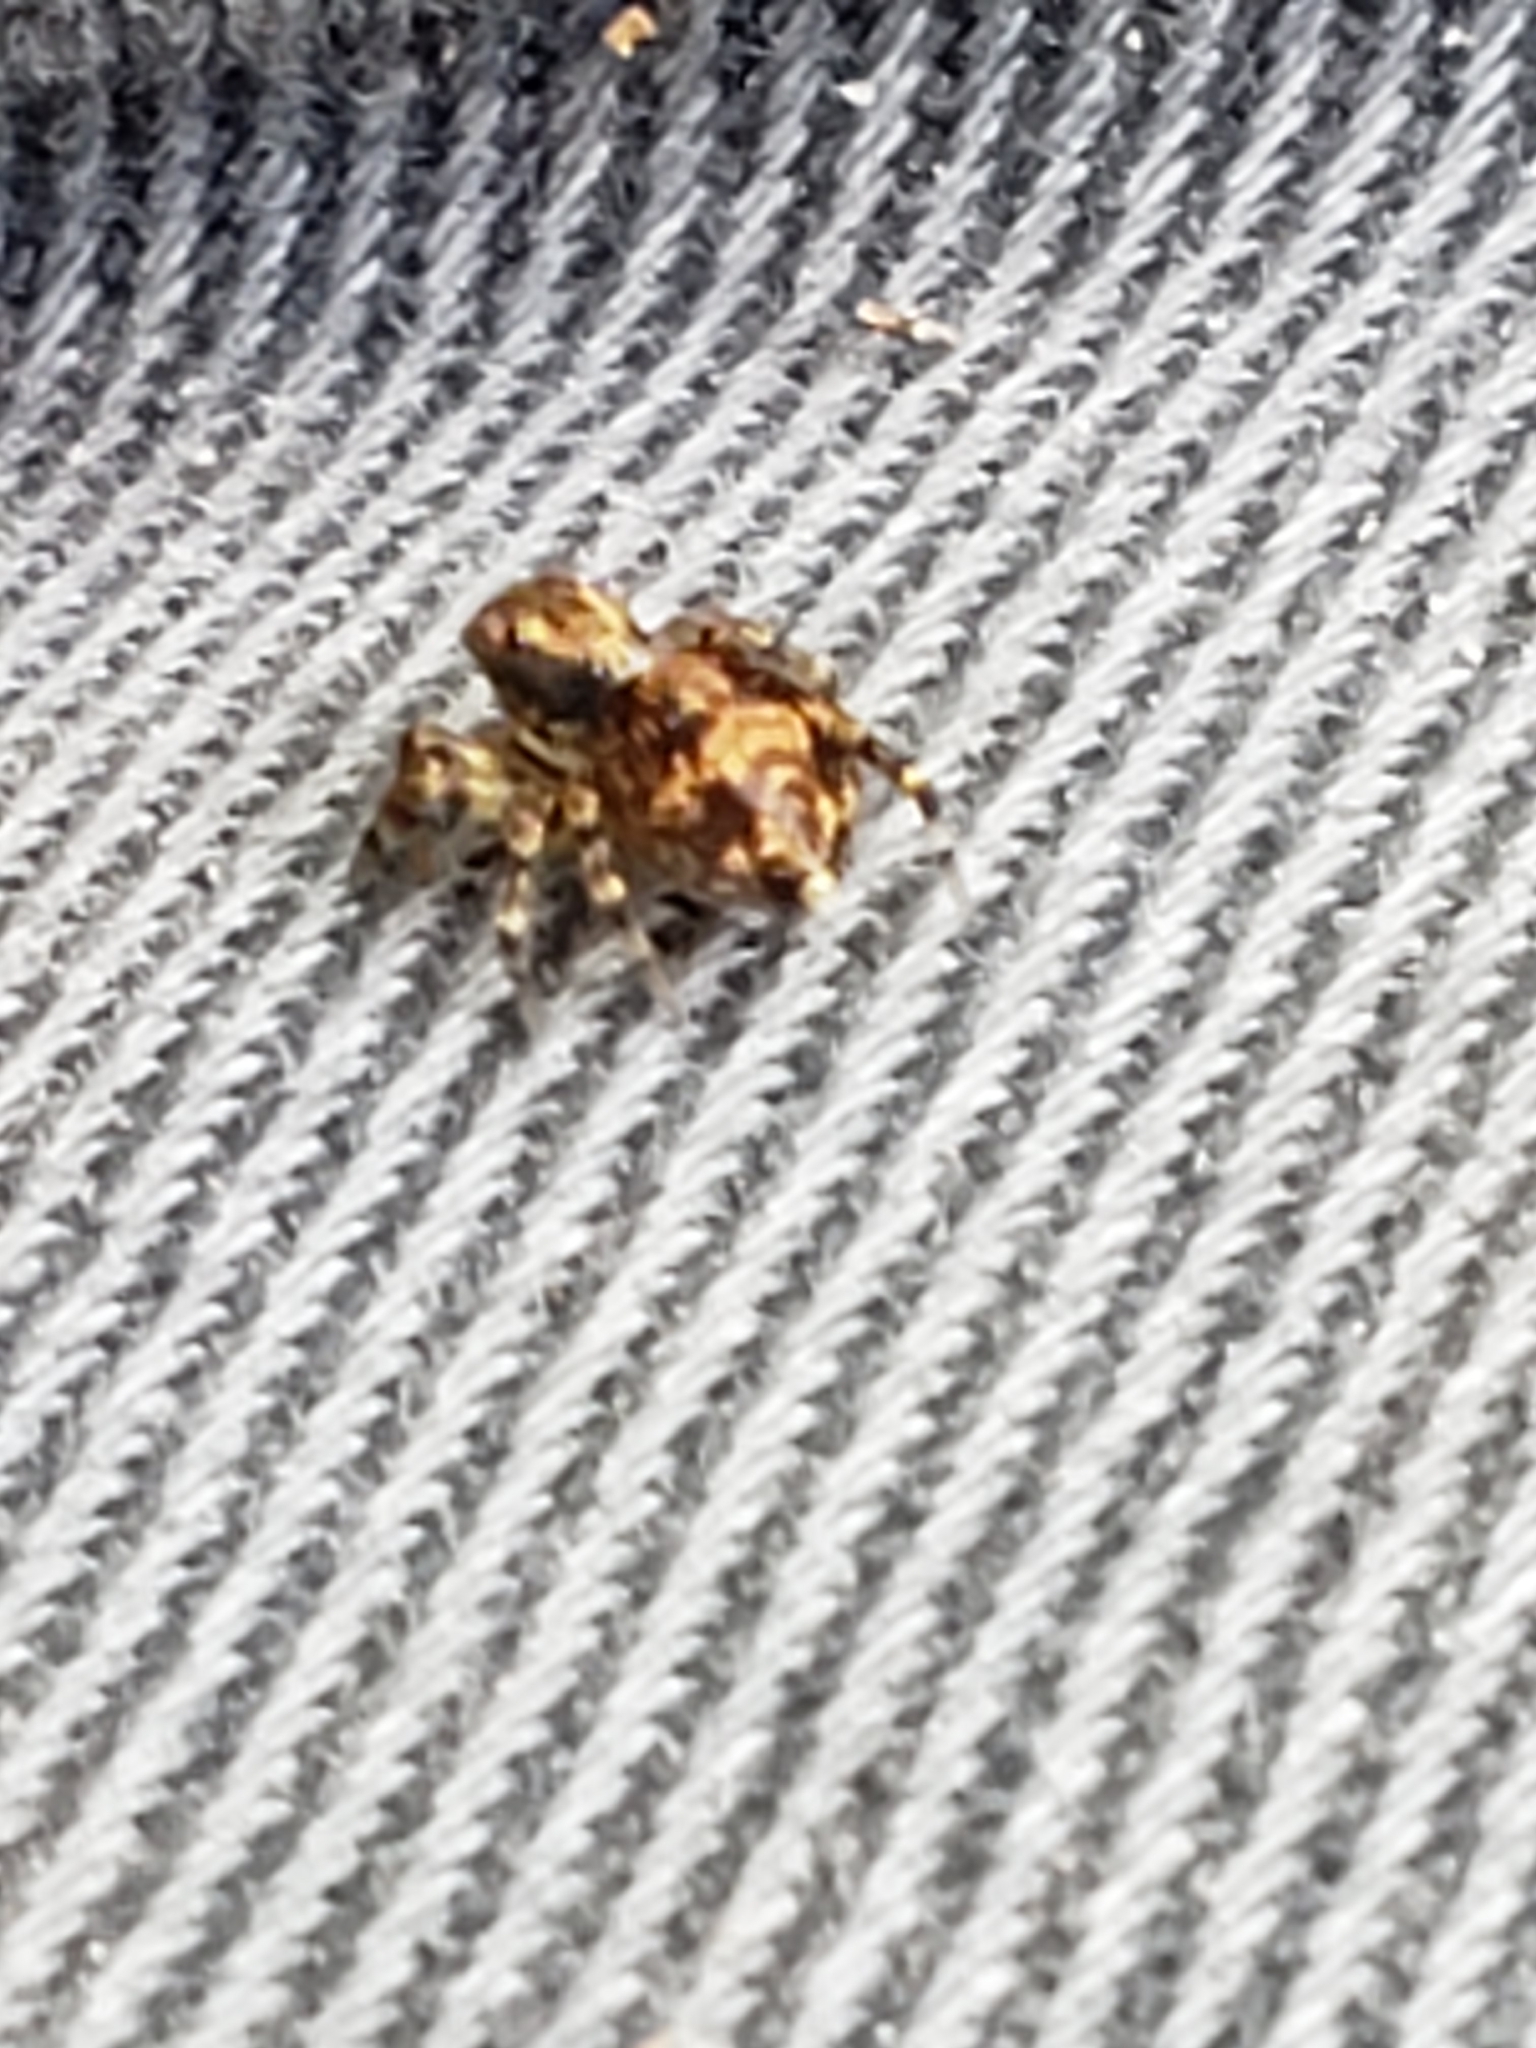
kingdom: Animalia
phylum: Arthropoda
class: Arachnida
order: Araneae
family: Salticidae
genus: Naphrys
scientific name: Naphrys pulex
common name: Flea jumping spider
